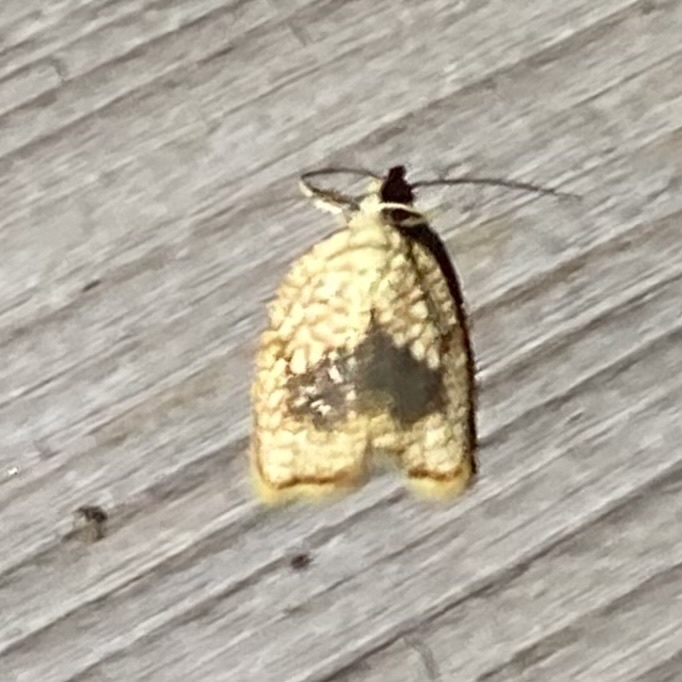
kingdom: Animalia
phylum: Arthropoda
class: Insecta
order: Lepidoptera
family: Tortricidae
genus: Acleris
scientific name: Acleris forsskaleana
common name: Maple button
